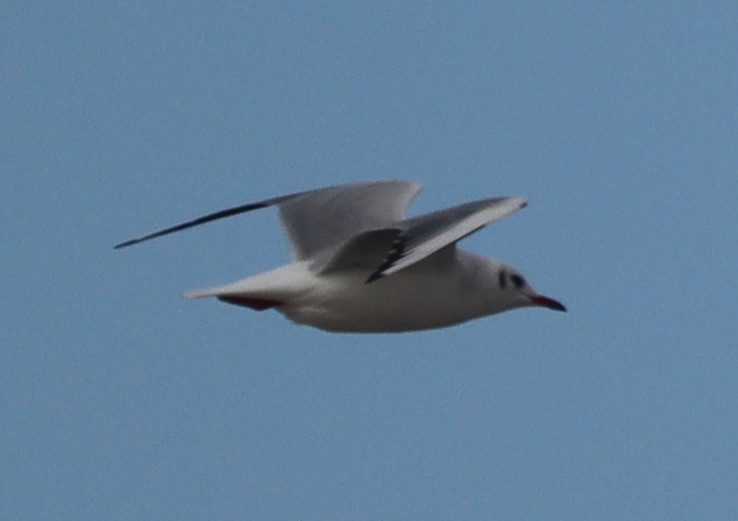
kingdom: Animalia
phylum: Chordata
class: Aves
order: Charadriiformes
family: Laridae
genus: Chroicocephalus
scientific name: Chroicocephalus ridibundus
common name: Black-headed gull
